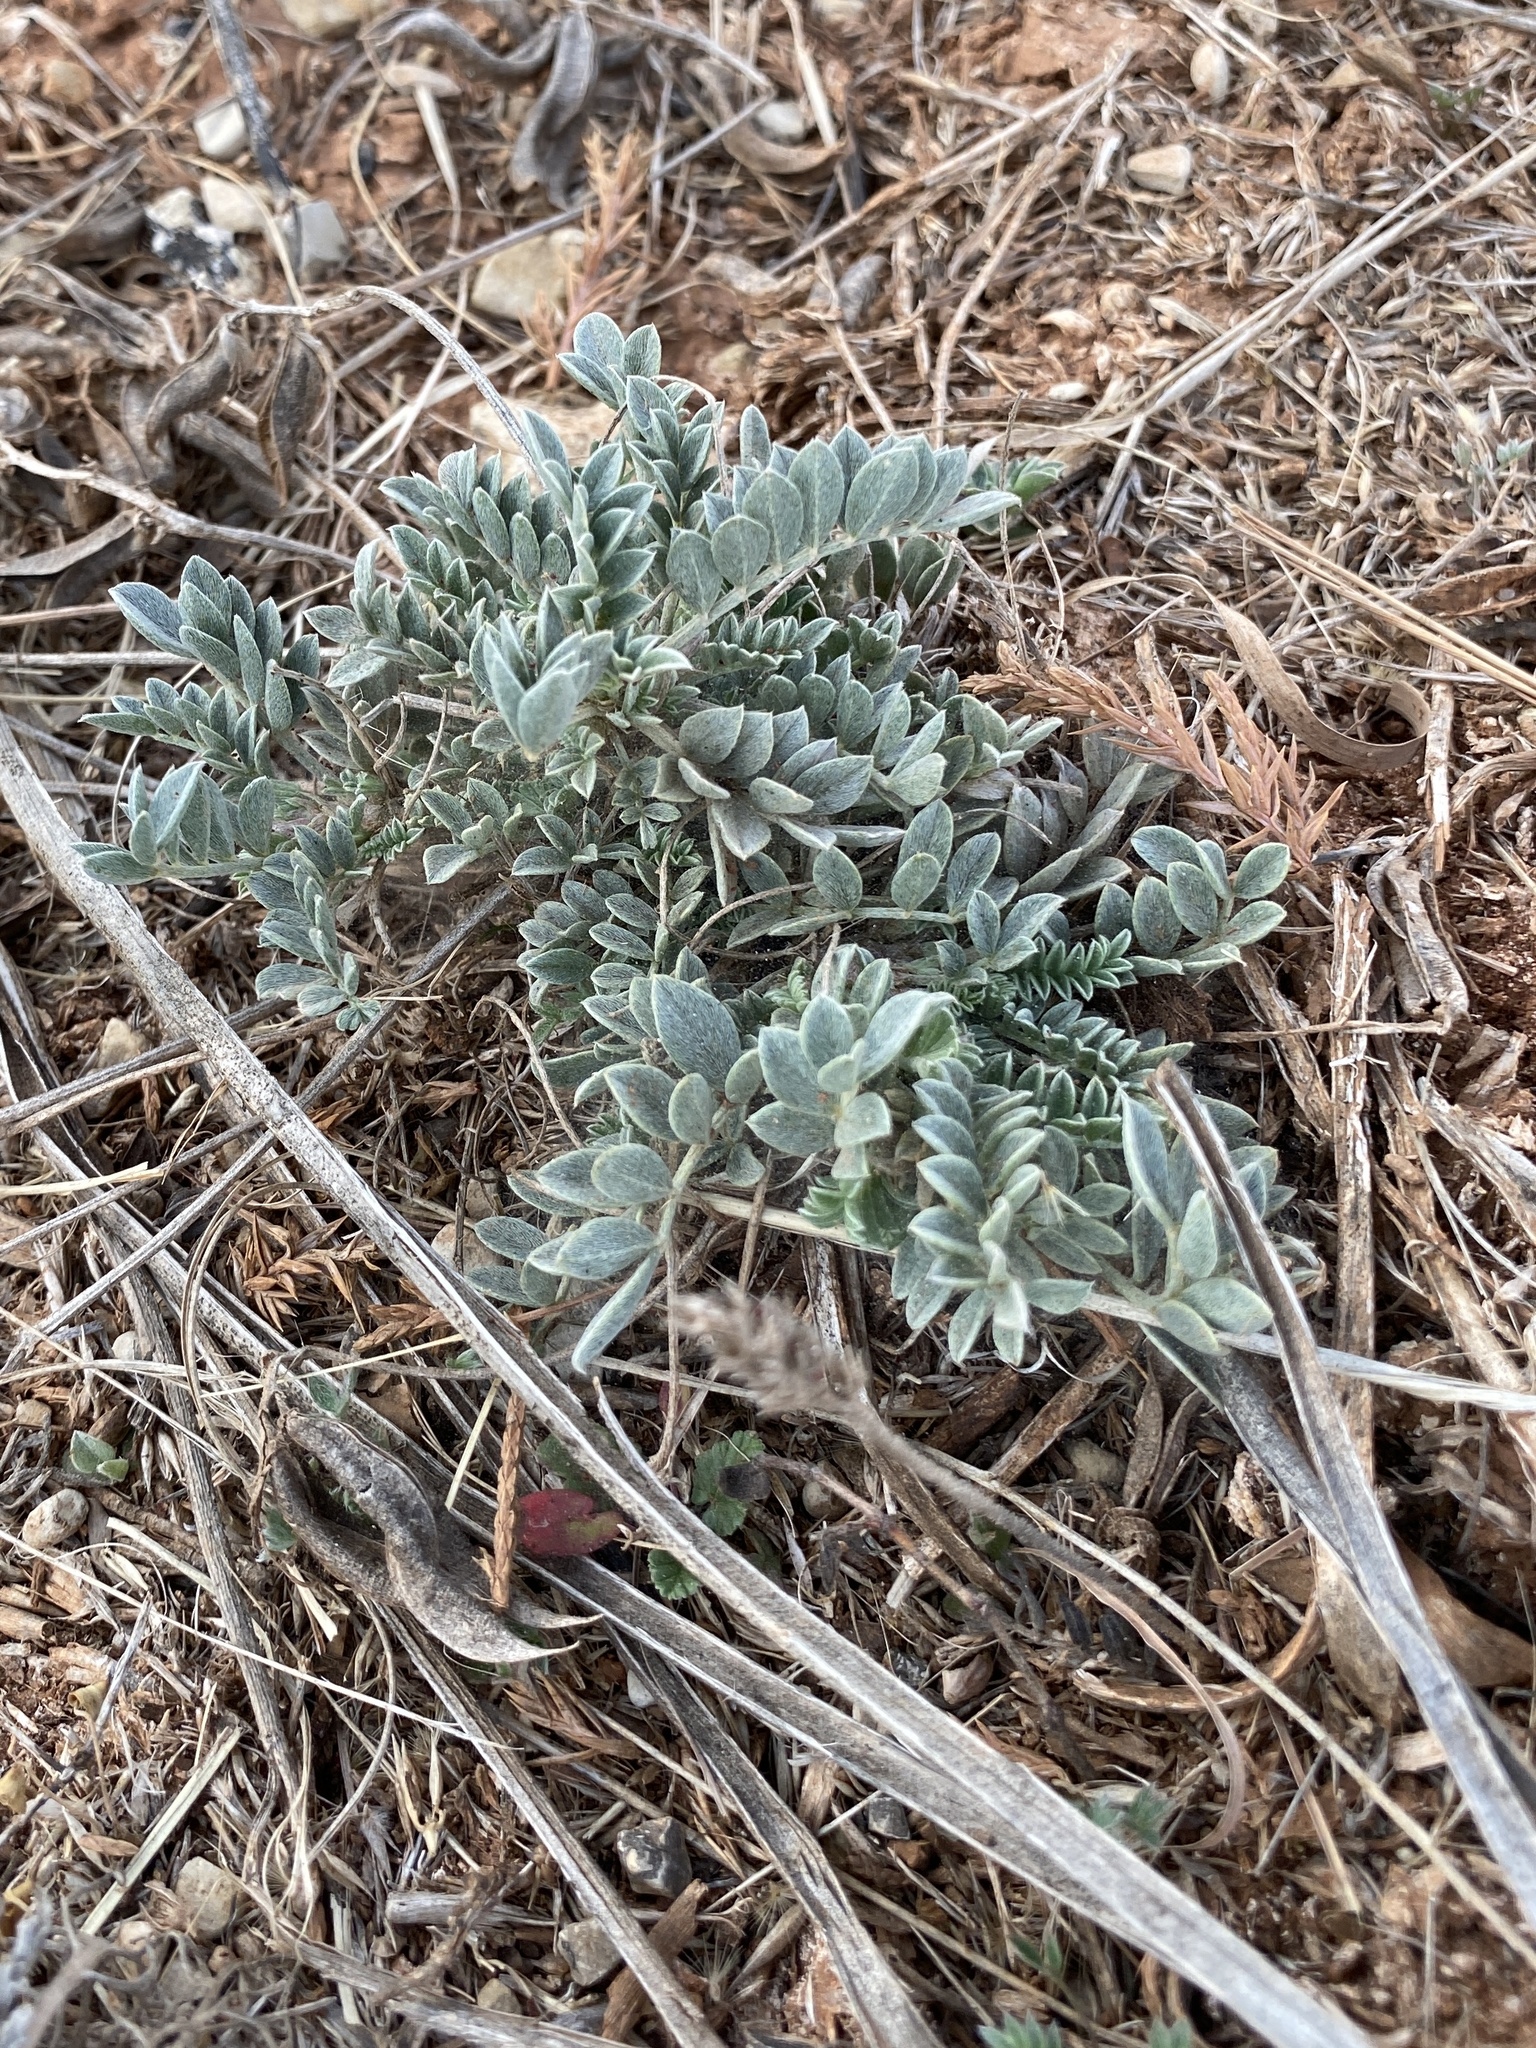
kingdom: Plantae
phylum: Tracheophyta
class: Magnoliopsida
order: Fabales
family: Fabaceae
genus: Astragalus
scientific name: Astragalus missouriensis
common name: Missouri milk-vetch
